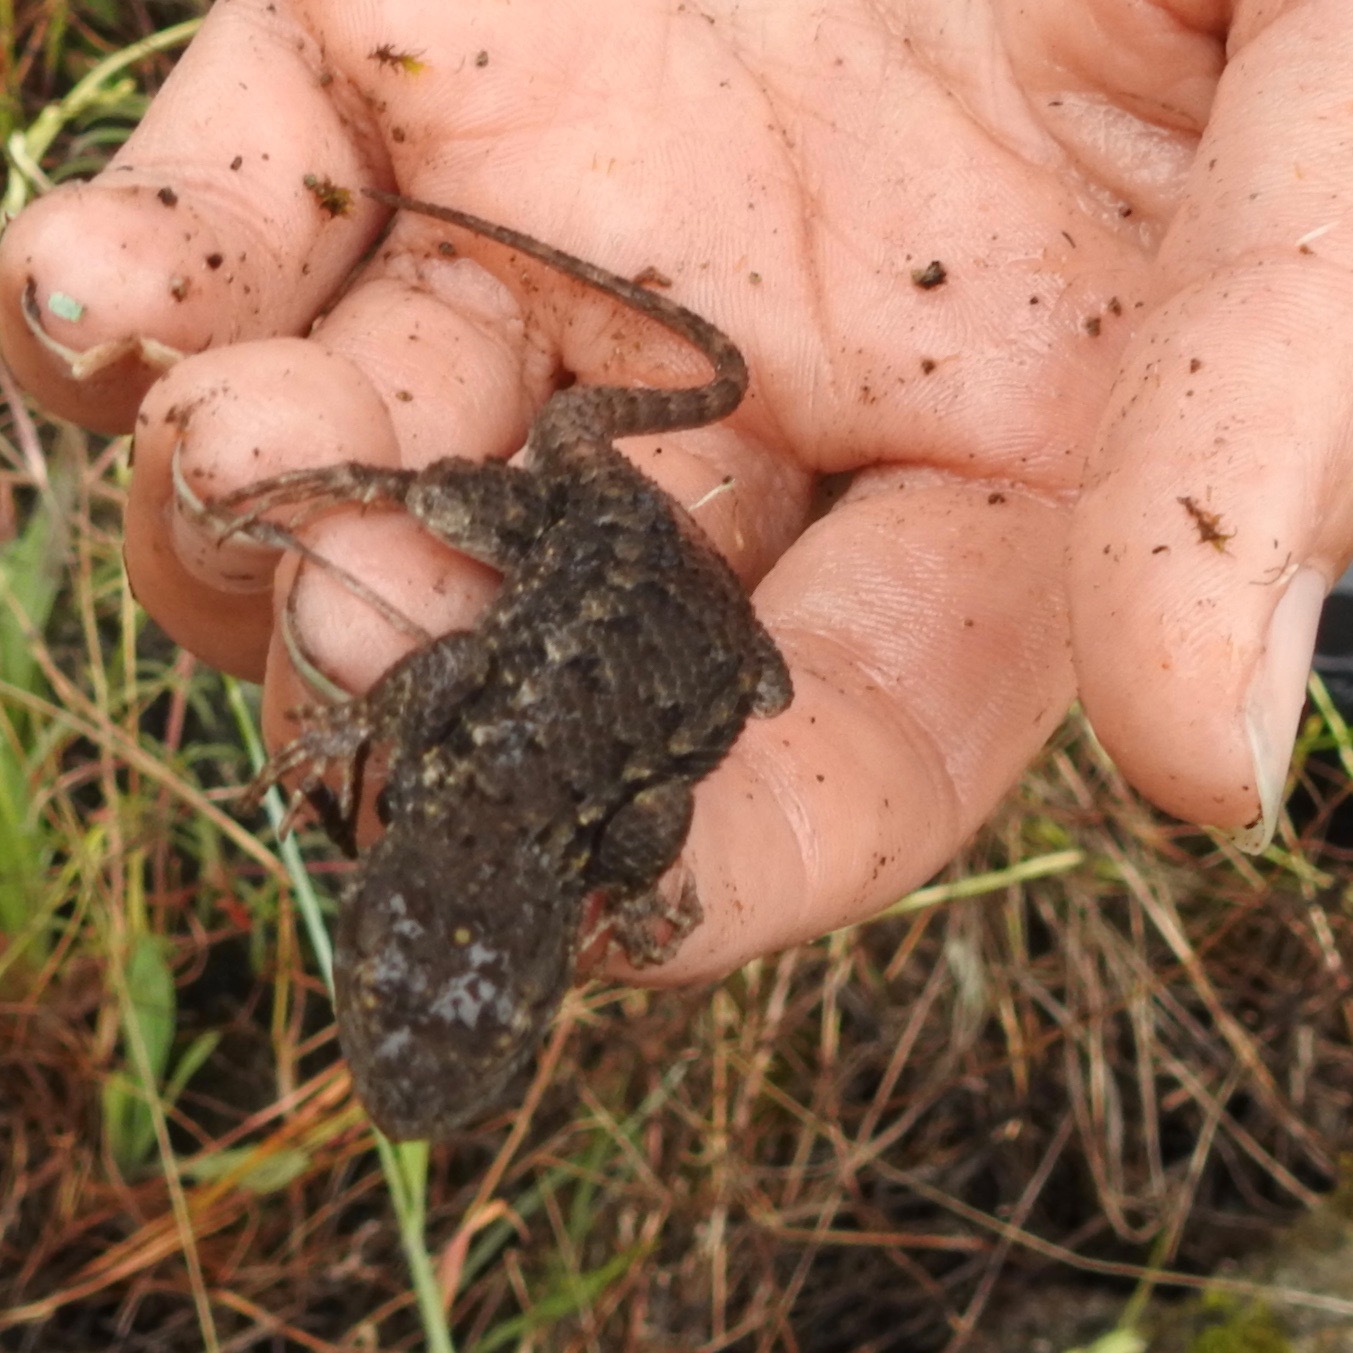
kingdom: Animalia
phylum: Chordata
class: Squamata
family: Phrynosomatidae
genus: Sceloporus
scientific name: Sceloporus occidentalis
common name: Western fence lizard
